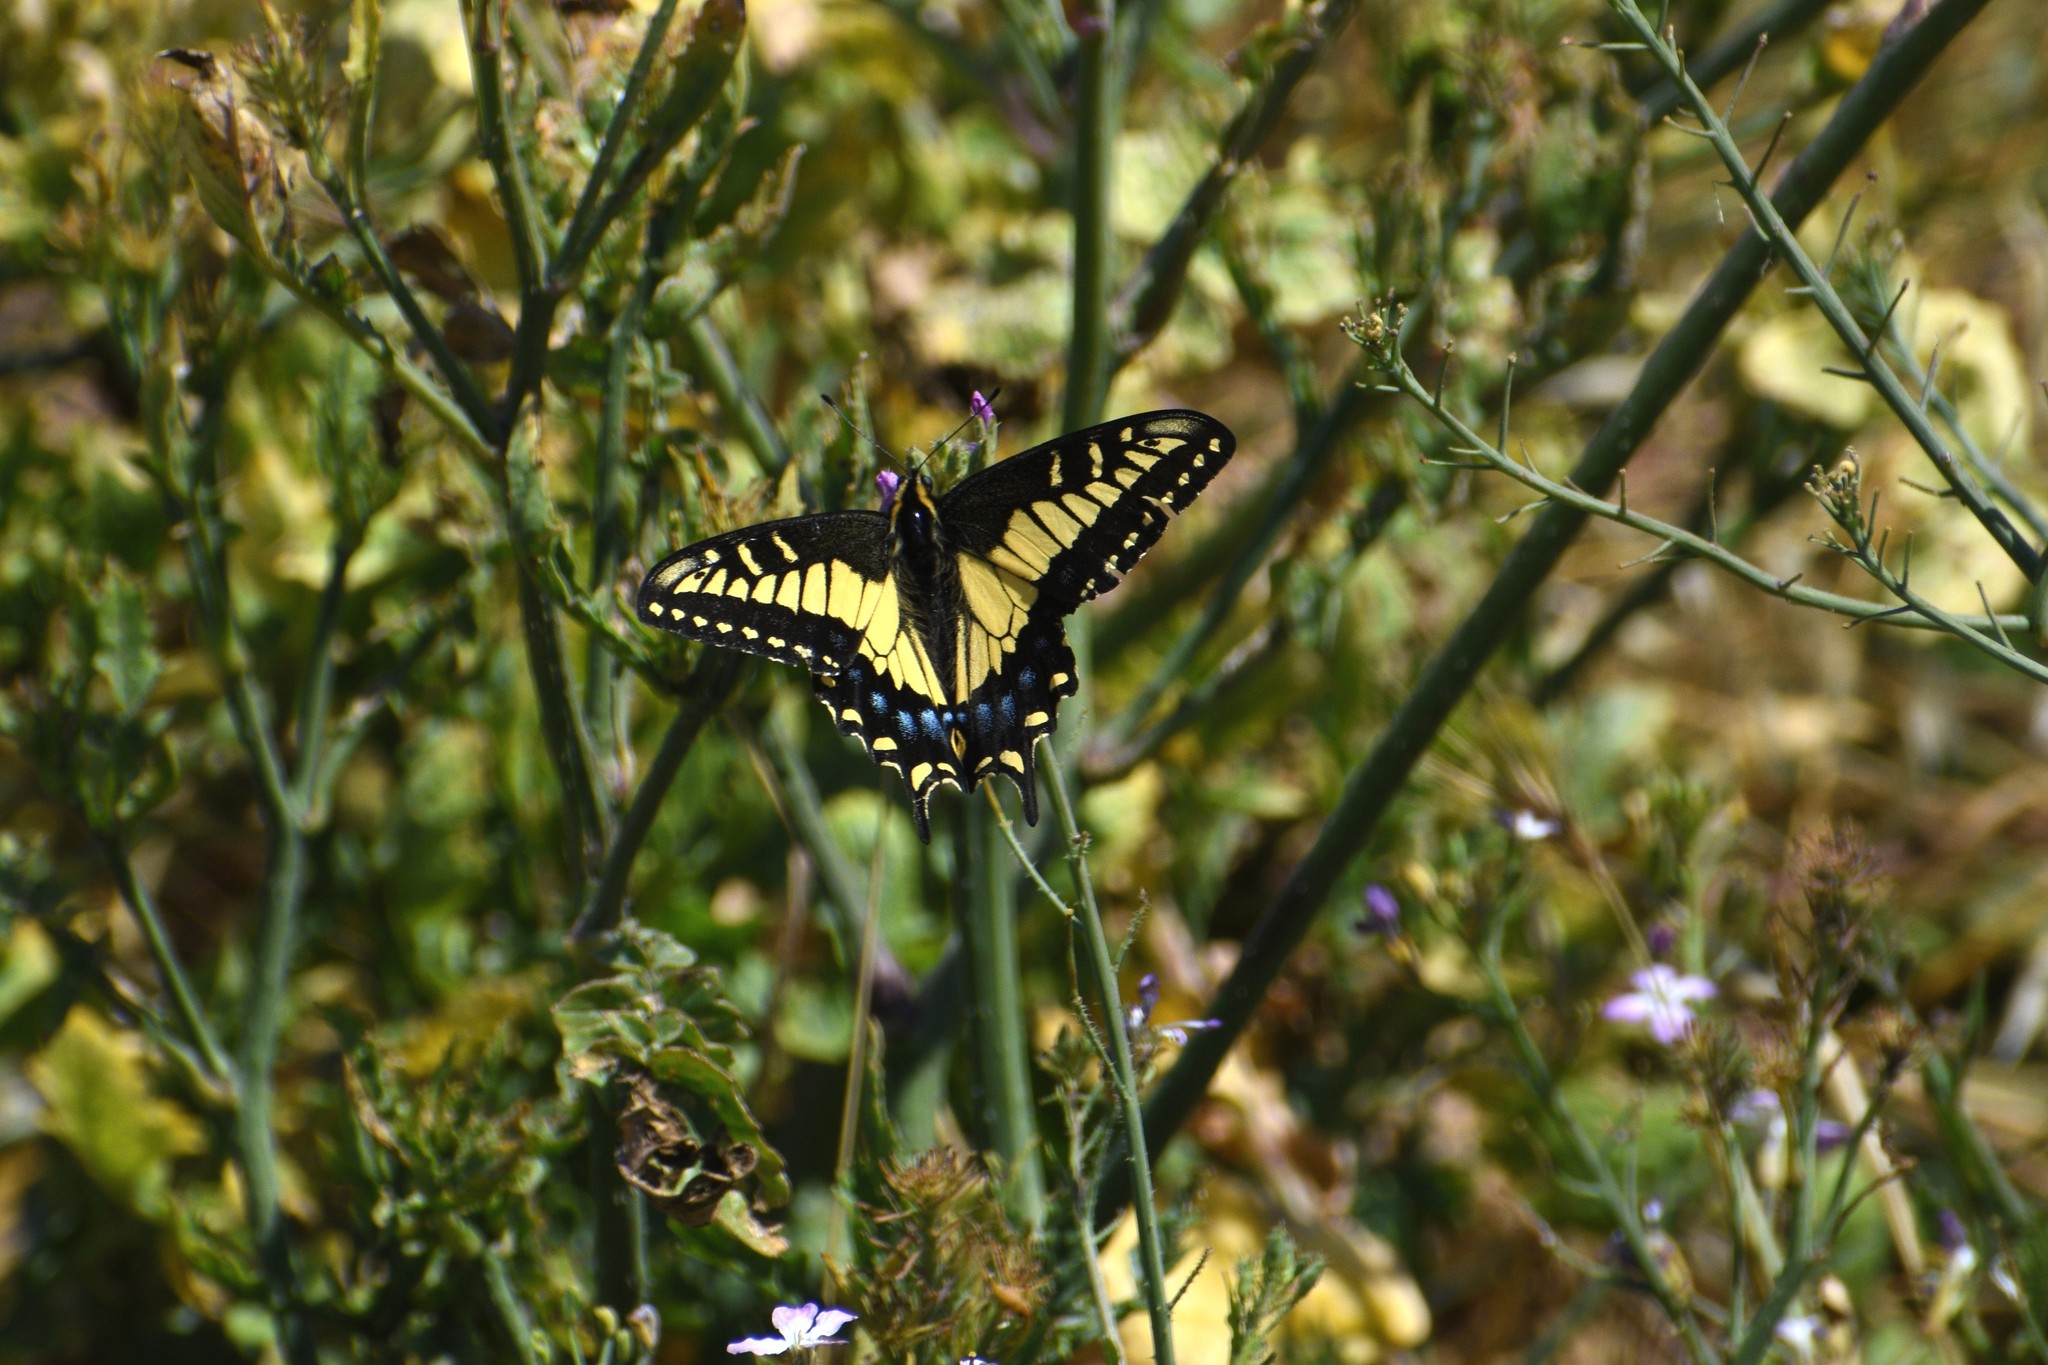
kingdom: Animalia
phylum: Arthropoda
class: Insecta
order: Lepidoptera
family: Papilionidae
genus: Papilio
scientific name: Papilio zelicaon
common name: Anise swallowtail
